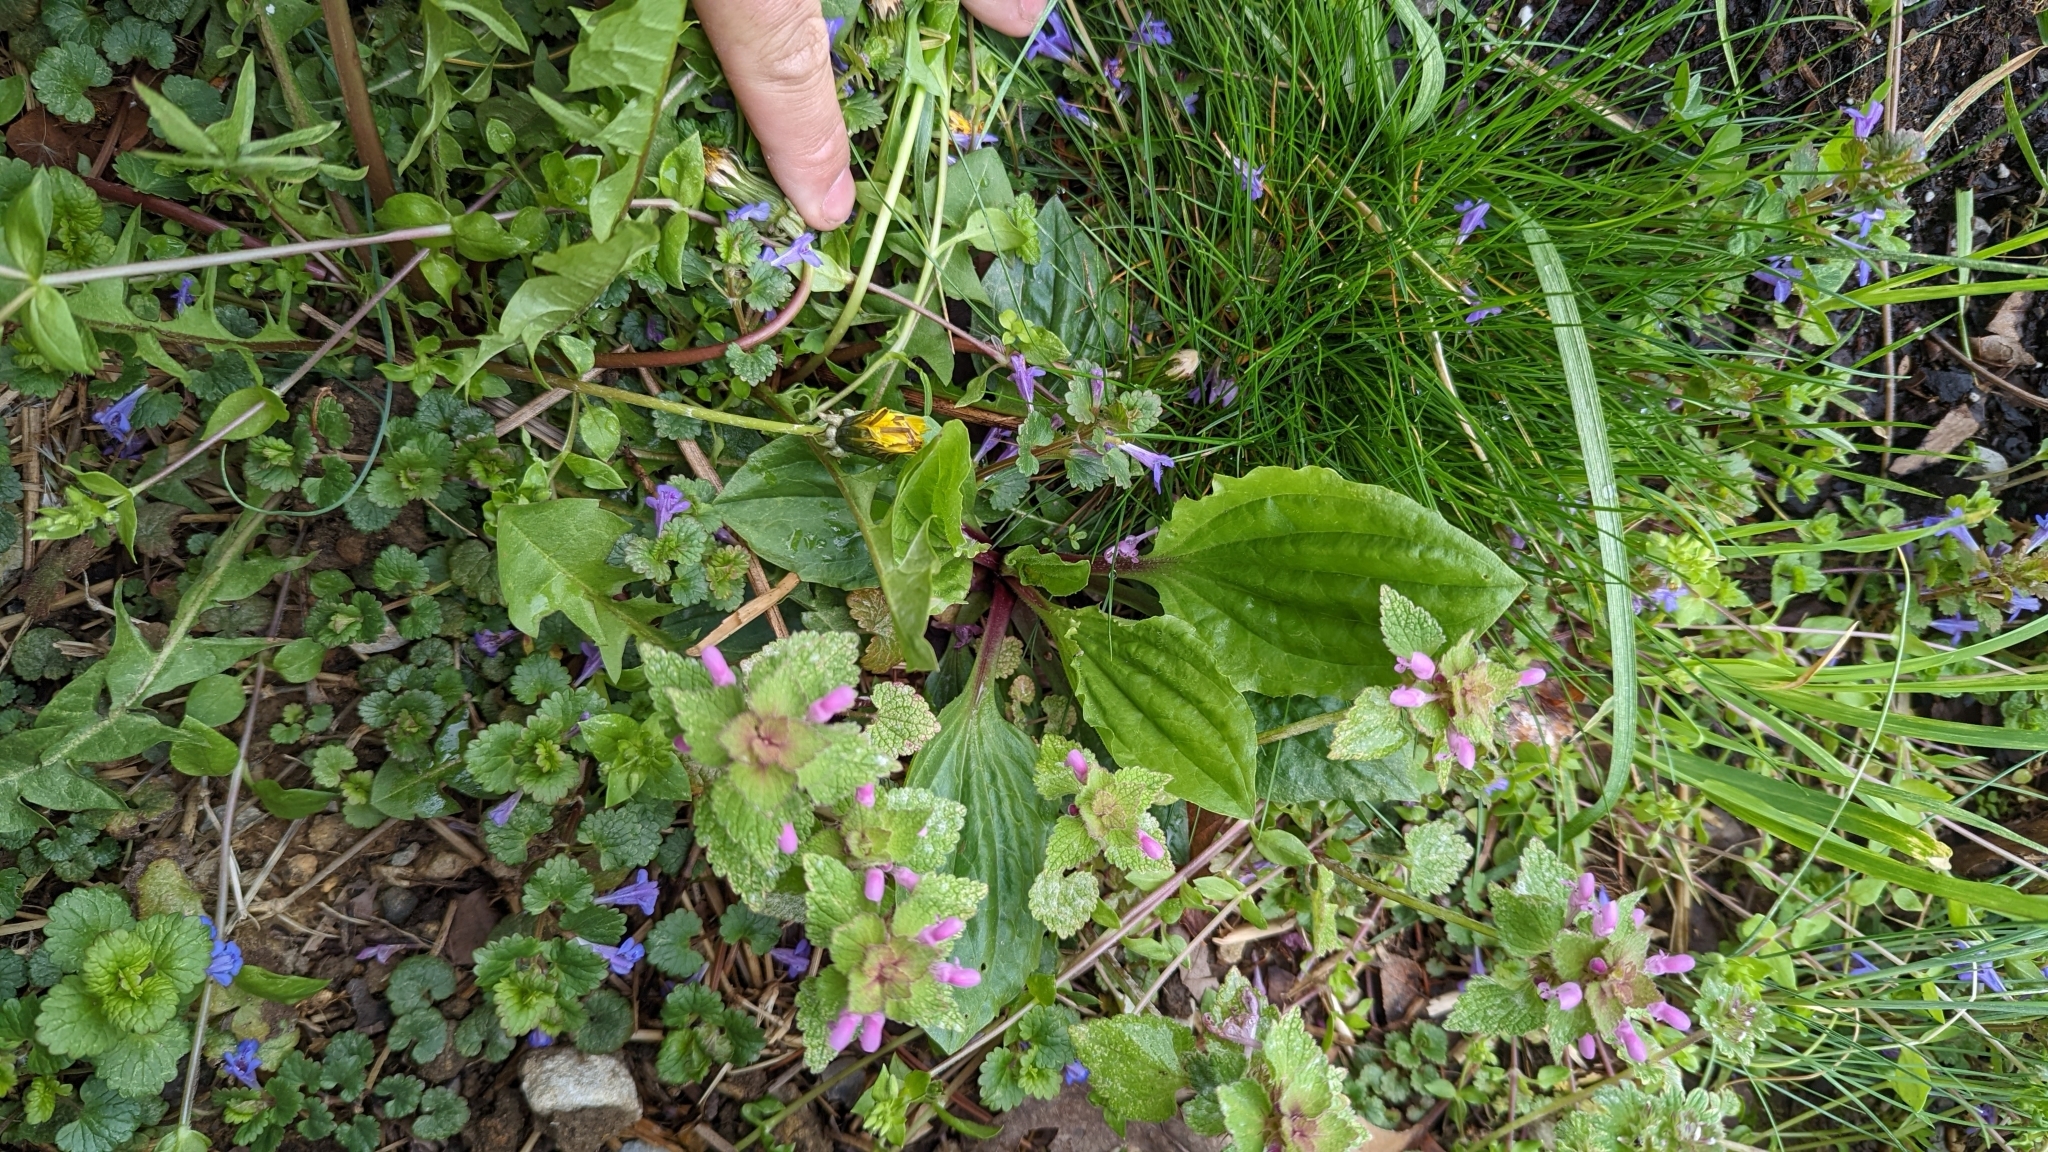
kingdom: Plantae
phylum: Tracheophyta
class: Magnoliopsida
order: Lamiales
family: Plantaginaceae
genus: Plantago
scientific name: Plantago rugelii
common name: American plantain
